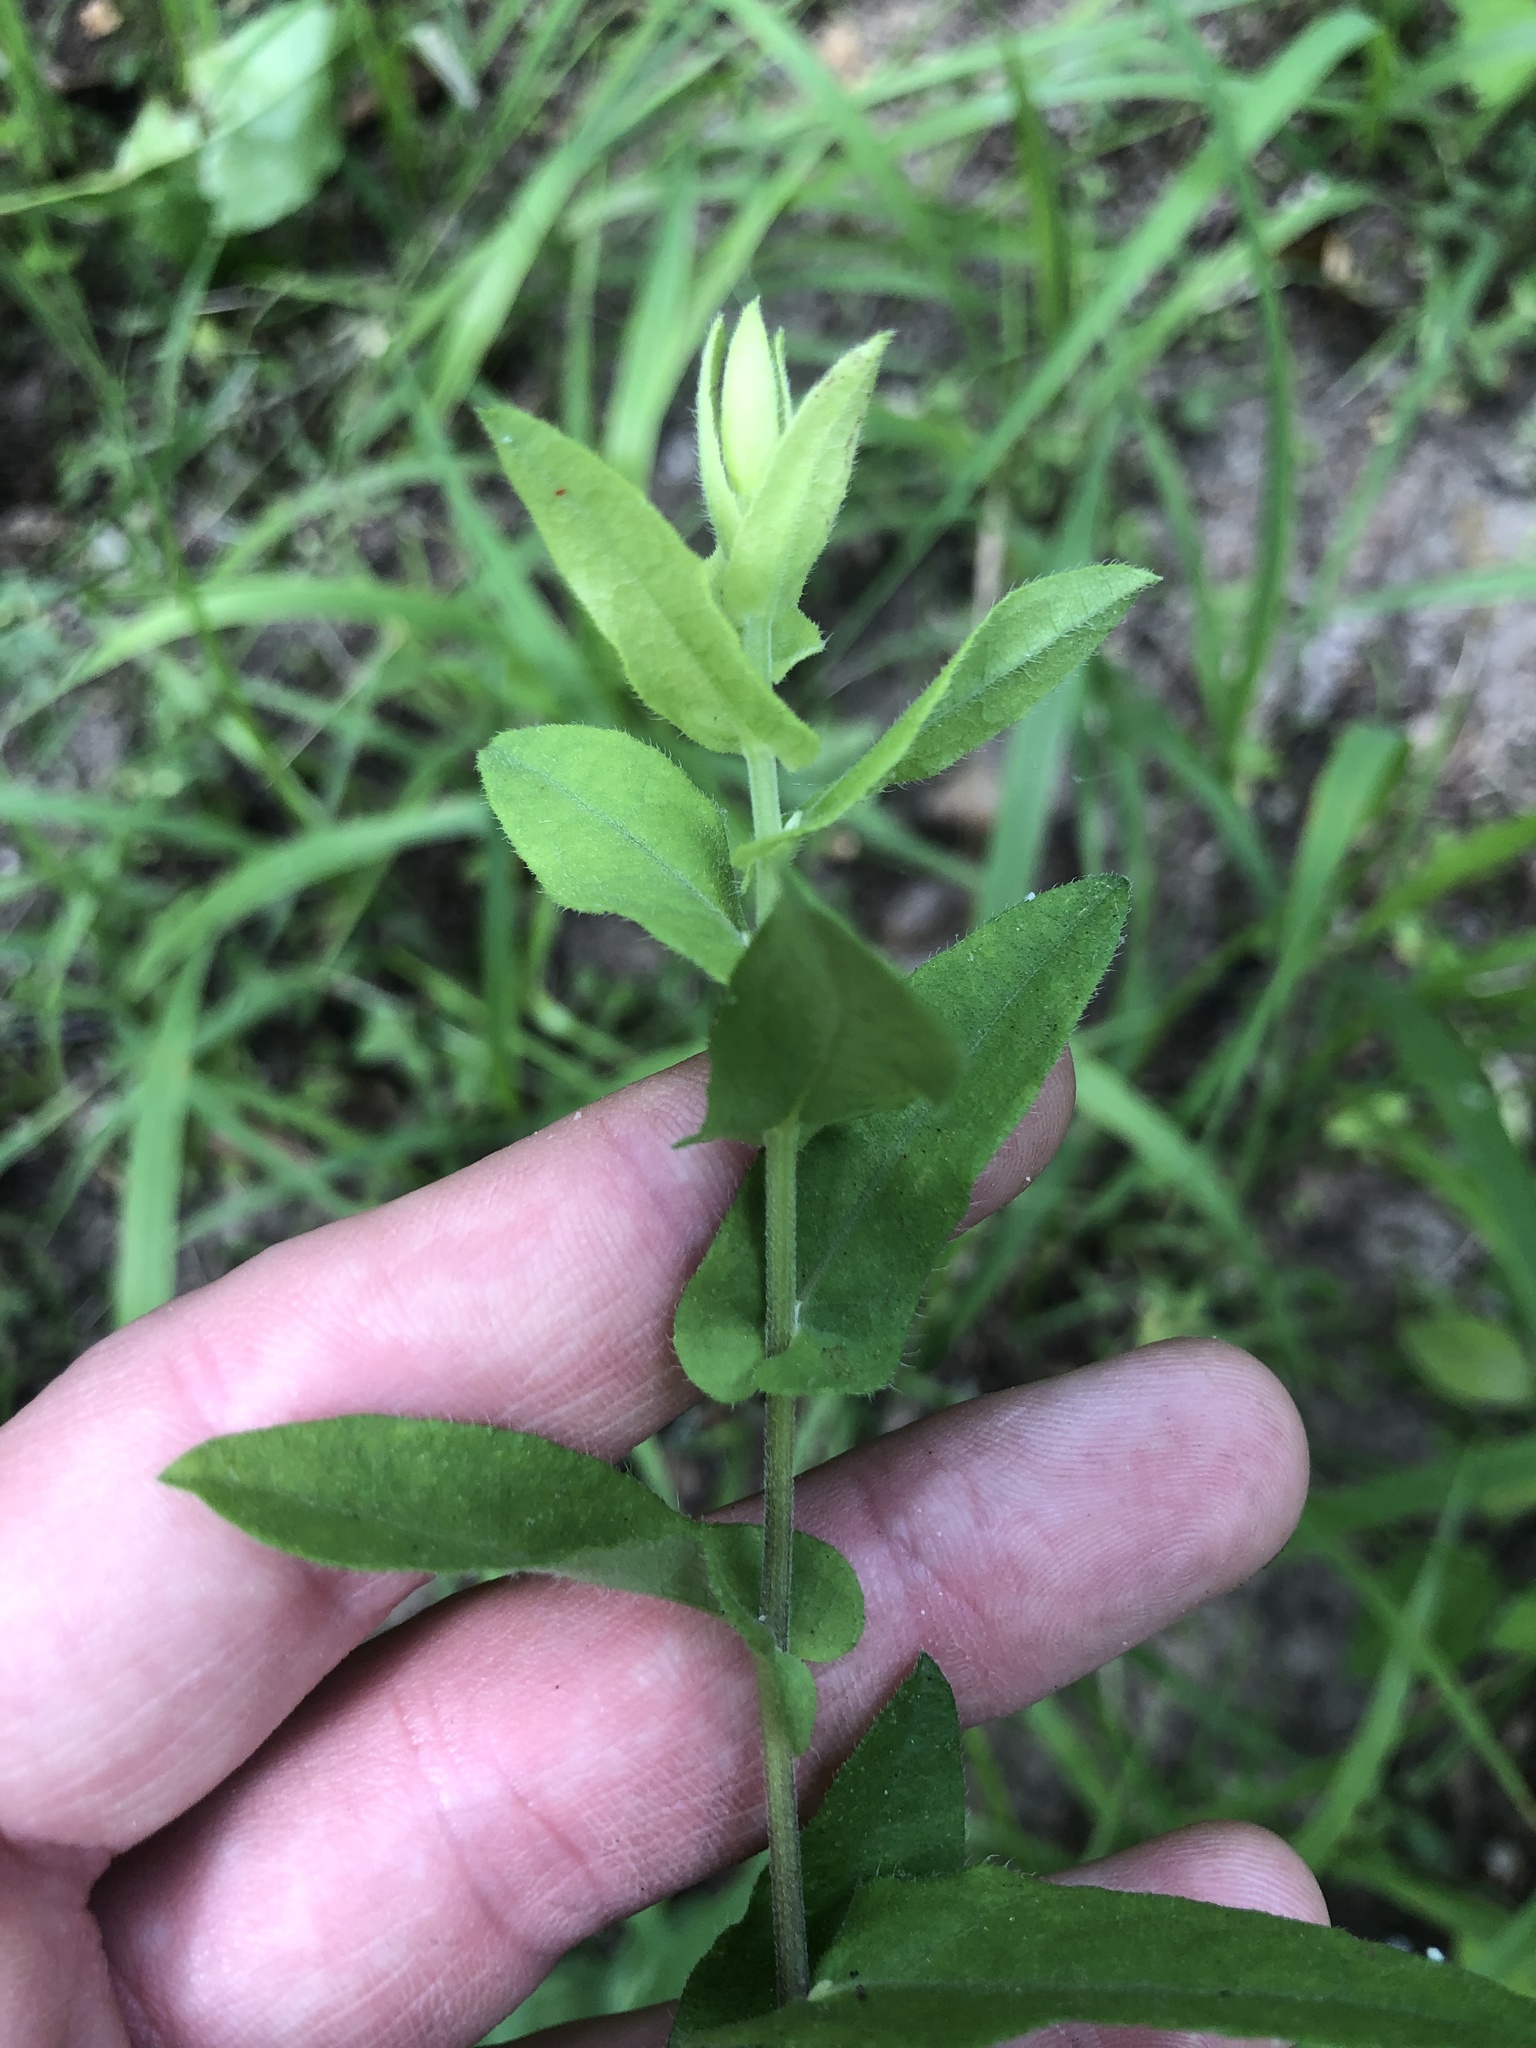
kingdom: Plantae
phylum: Tracheophyta
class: Magnoliopsida
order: Asterales
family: Asteraceae
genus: Symphyotrichum
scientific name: Symphyotrichum patens
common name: Late purple aster
